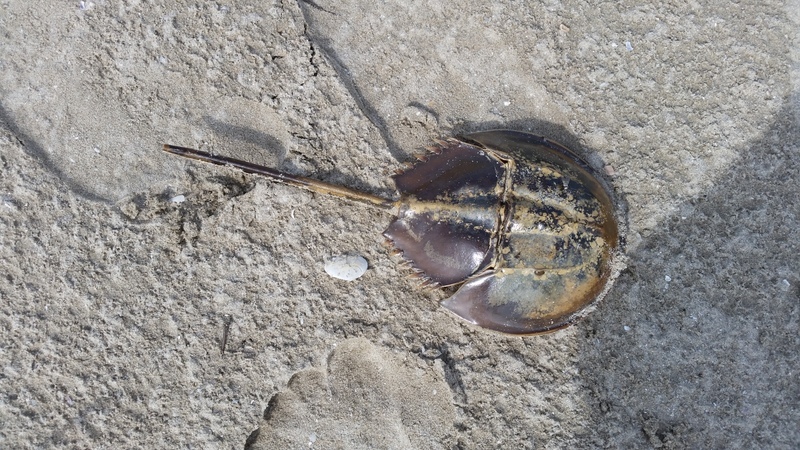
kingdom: Animalia
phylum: Arthropoda
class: Merostomata
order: Xiphosurida
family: Limulidae
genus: Carcinoscorpius
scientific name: Carcinoscorpius rotundicauda
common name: Horseshoe crab
